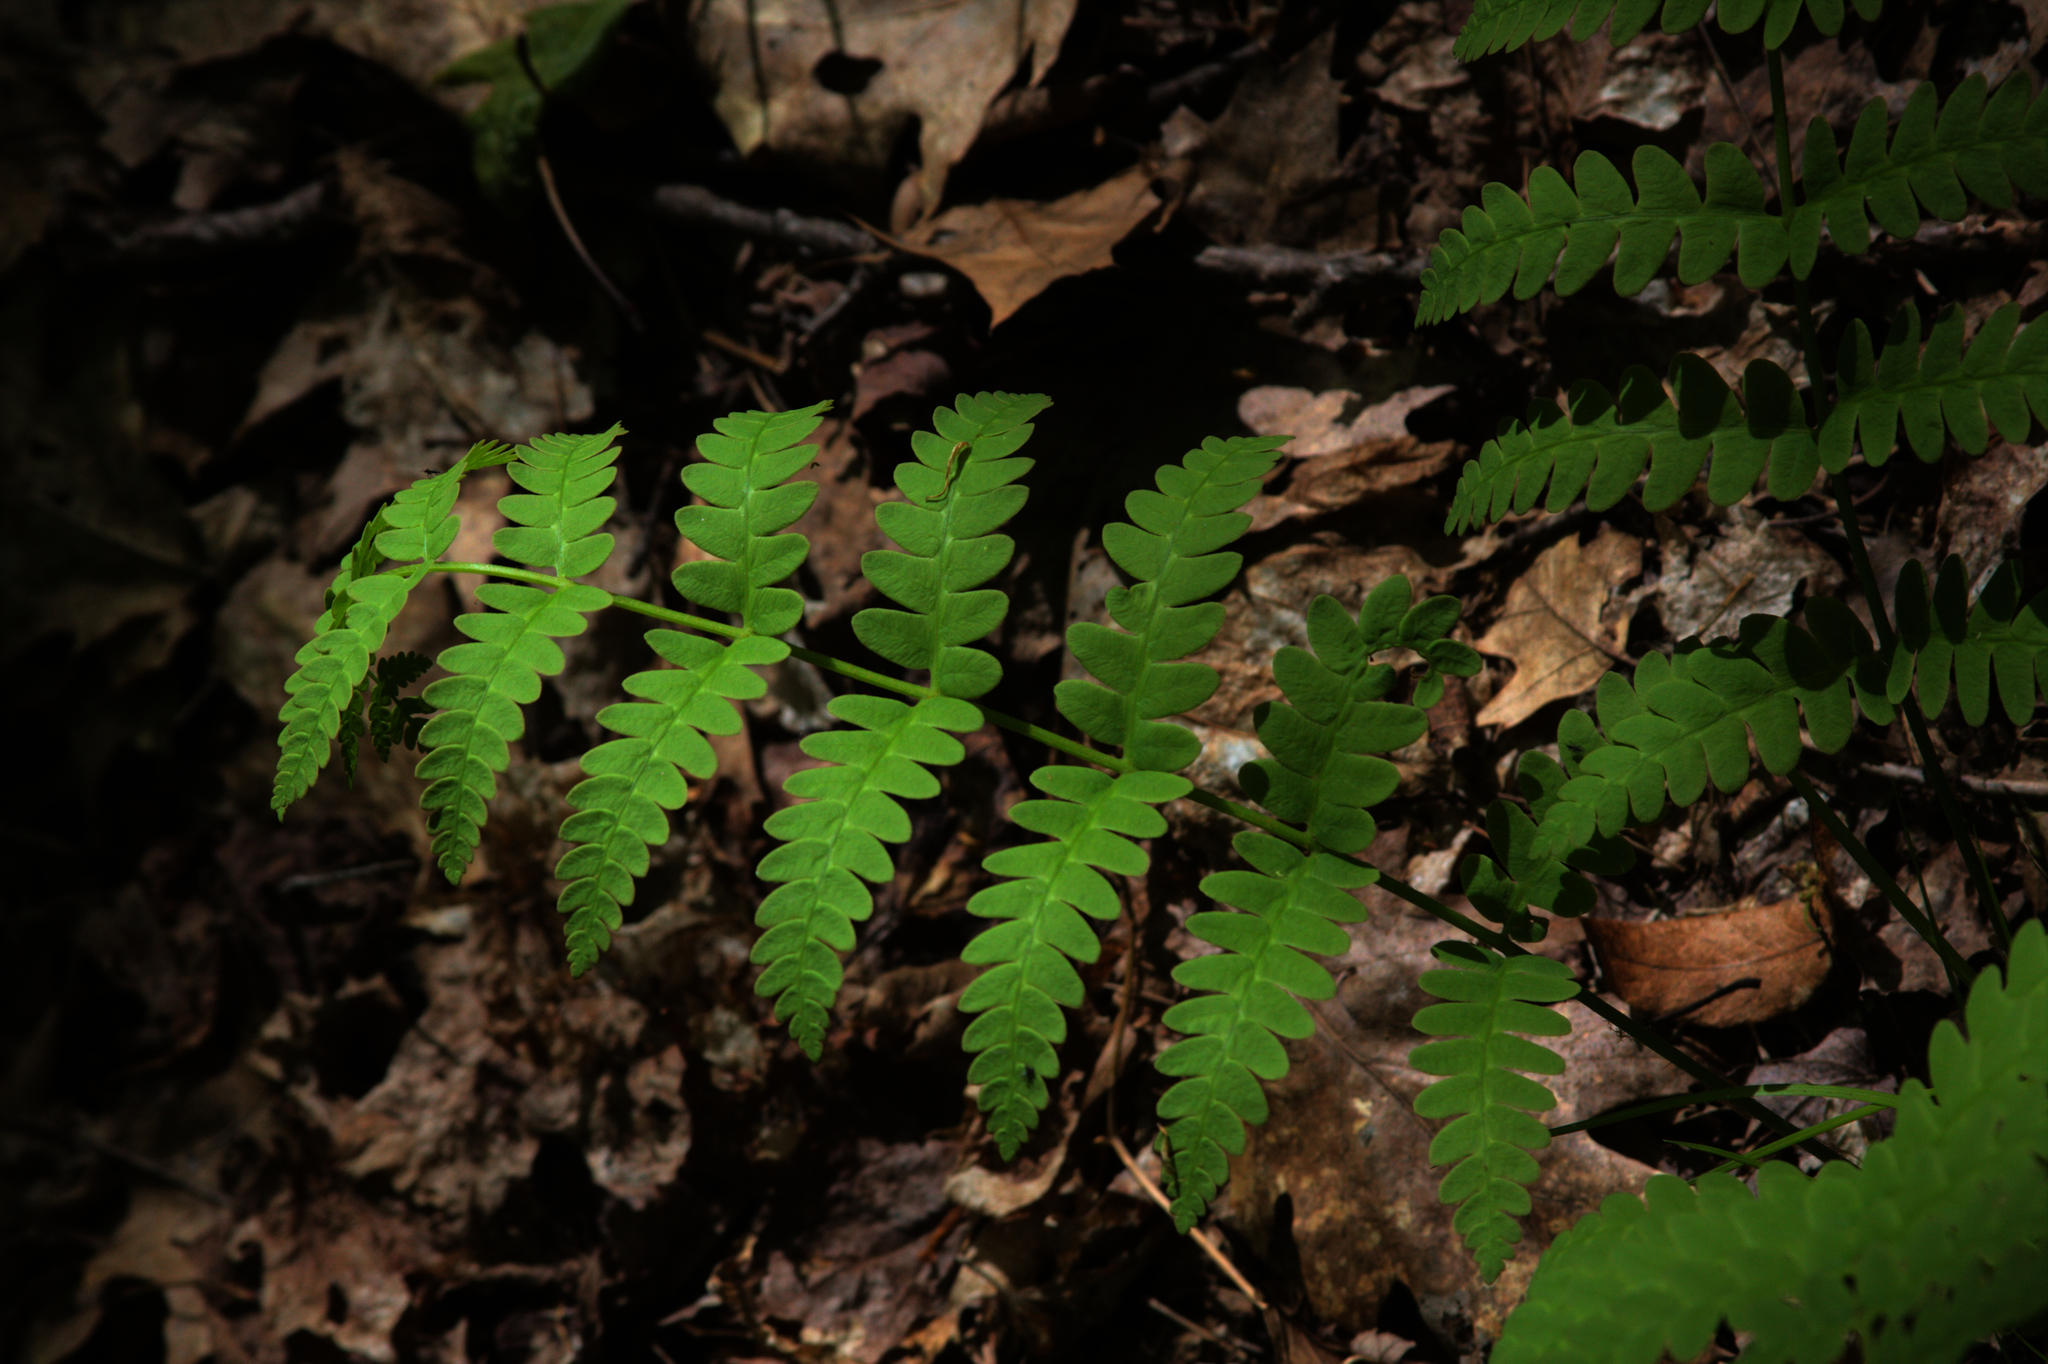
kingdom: Plantae
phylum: Tracheophyta
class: Polypodiopsida
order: Osmundales
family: Osmundaceae
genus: Claytosmunda
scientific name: Claytosmunda claytoniana
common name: Clayton's fern
